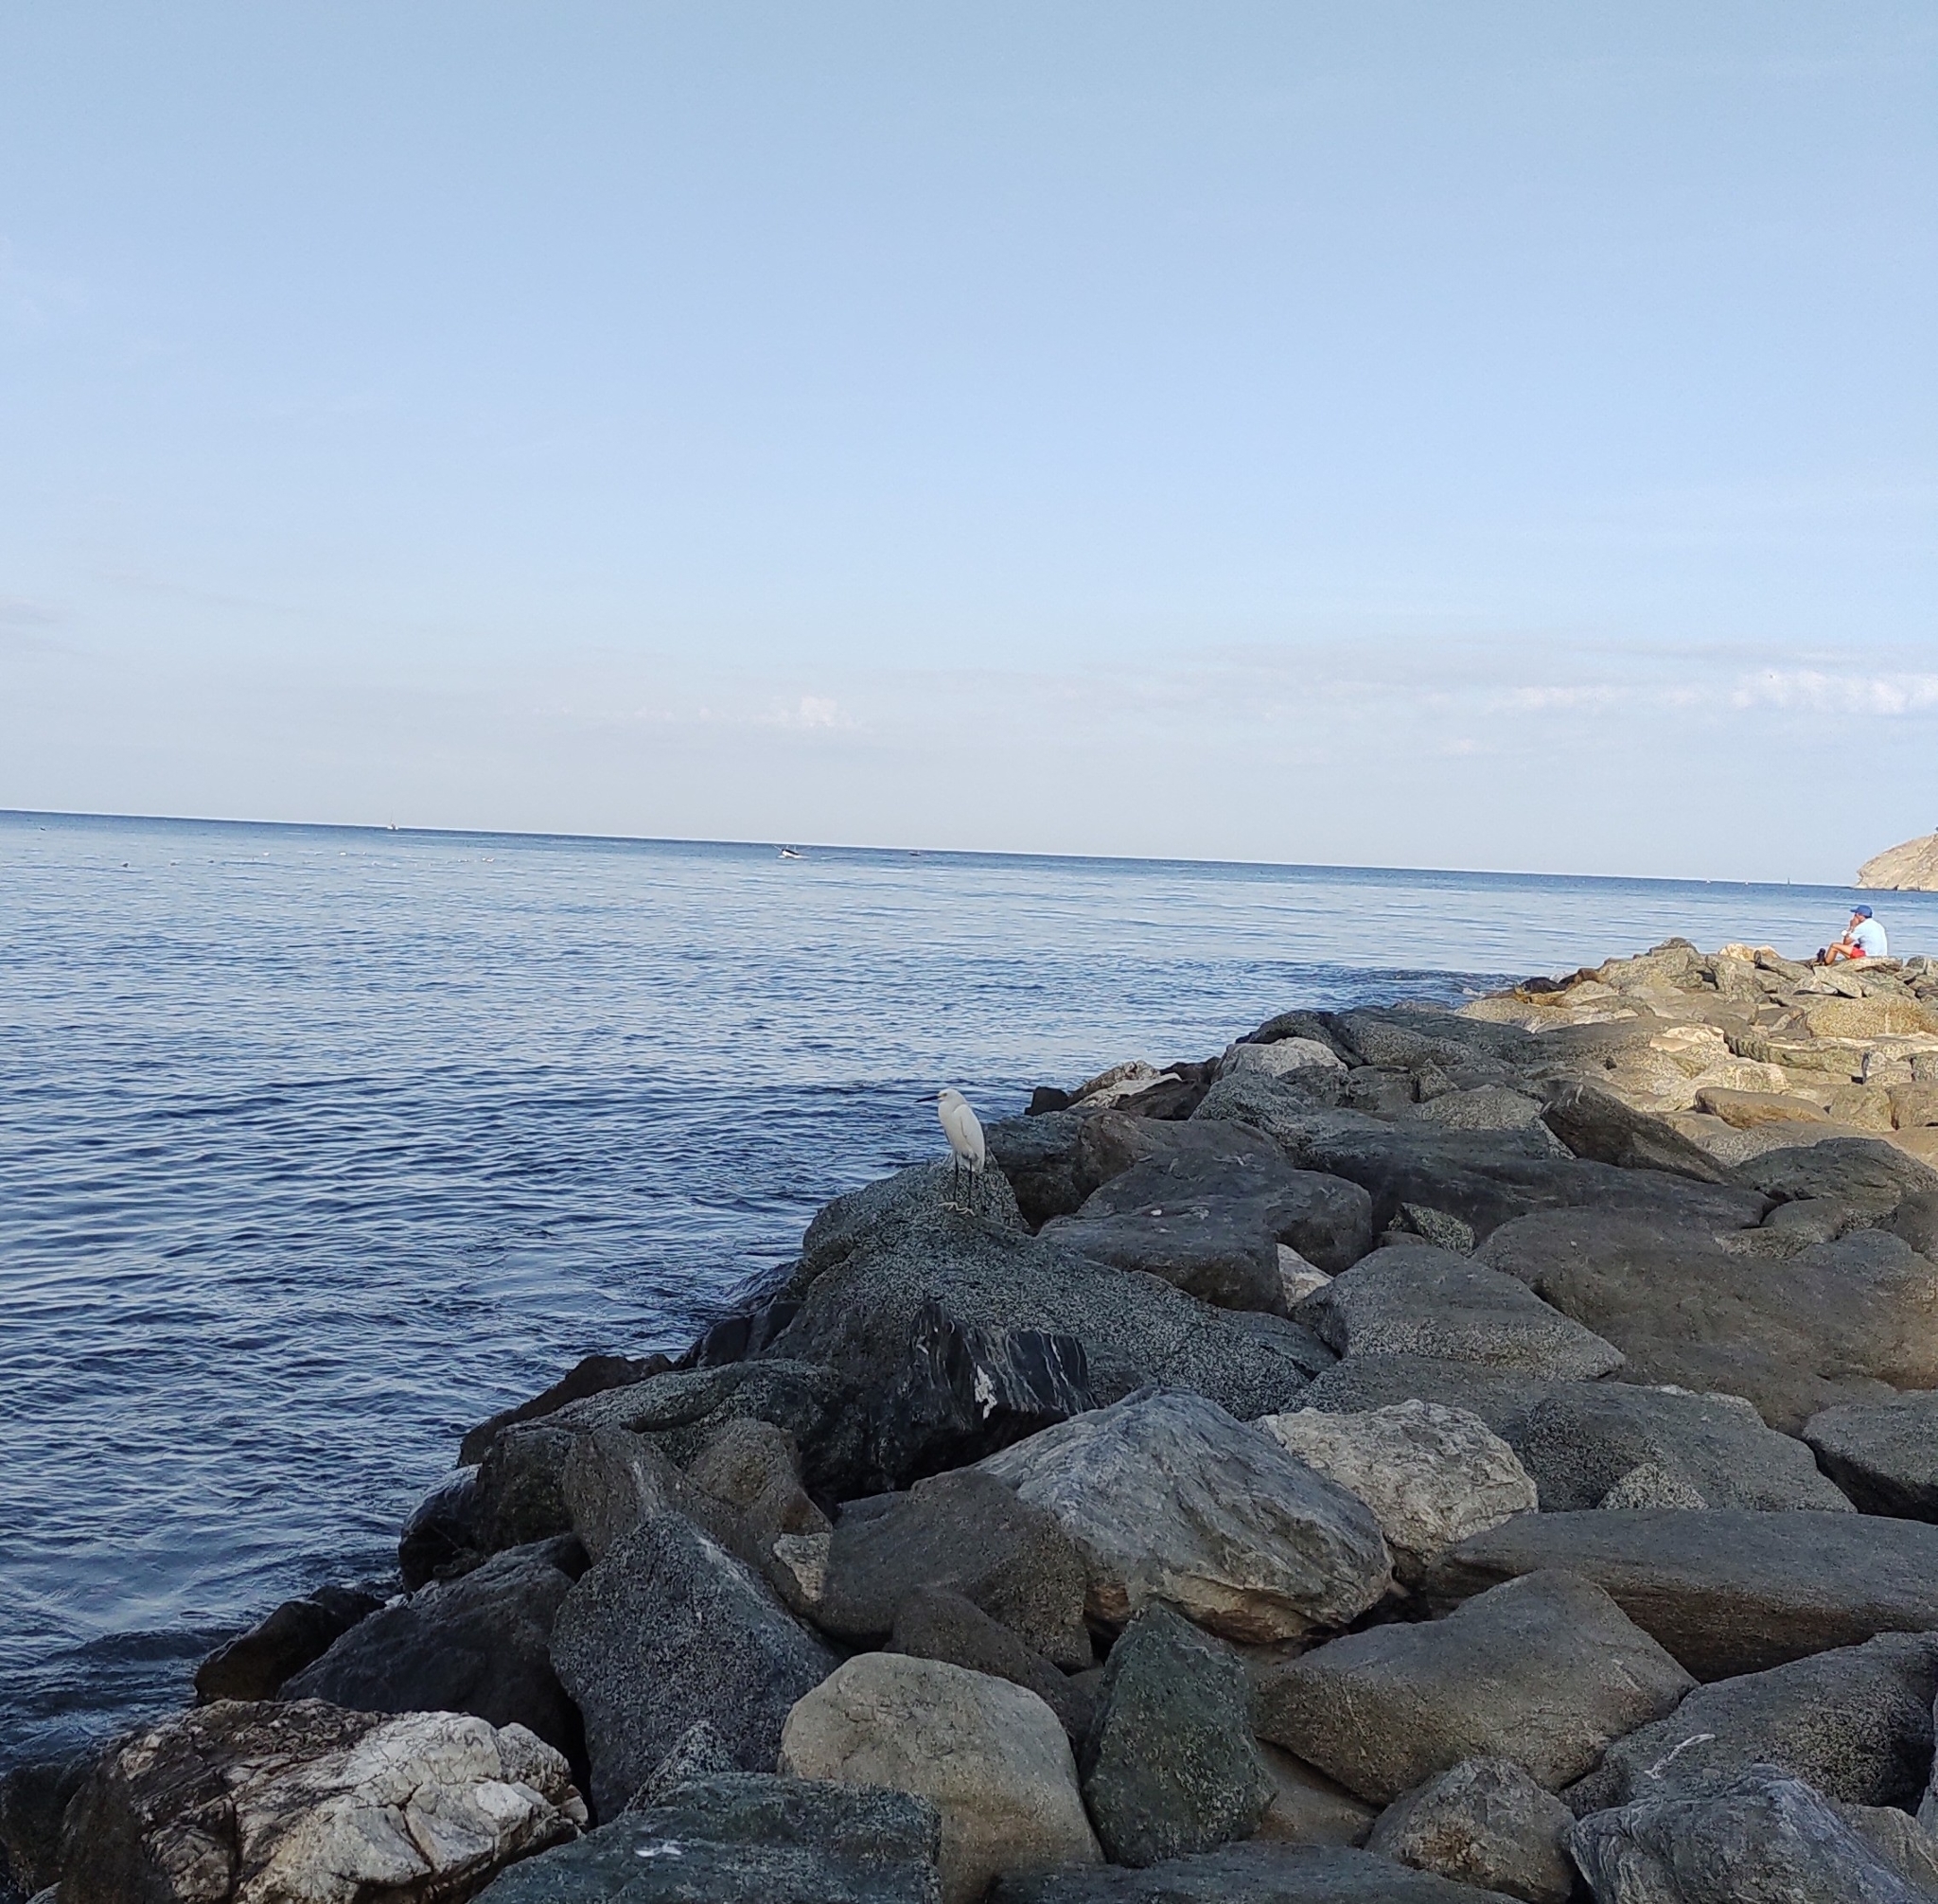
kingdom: Animalia
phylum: Chordata
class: Aves
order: Pelecaniformes
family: Ardeidae
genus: Egretta
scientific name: Egretta thula
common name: Snowy egret
